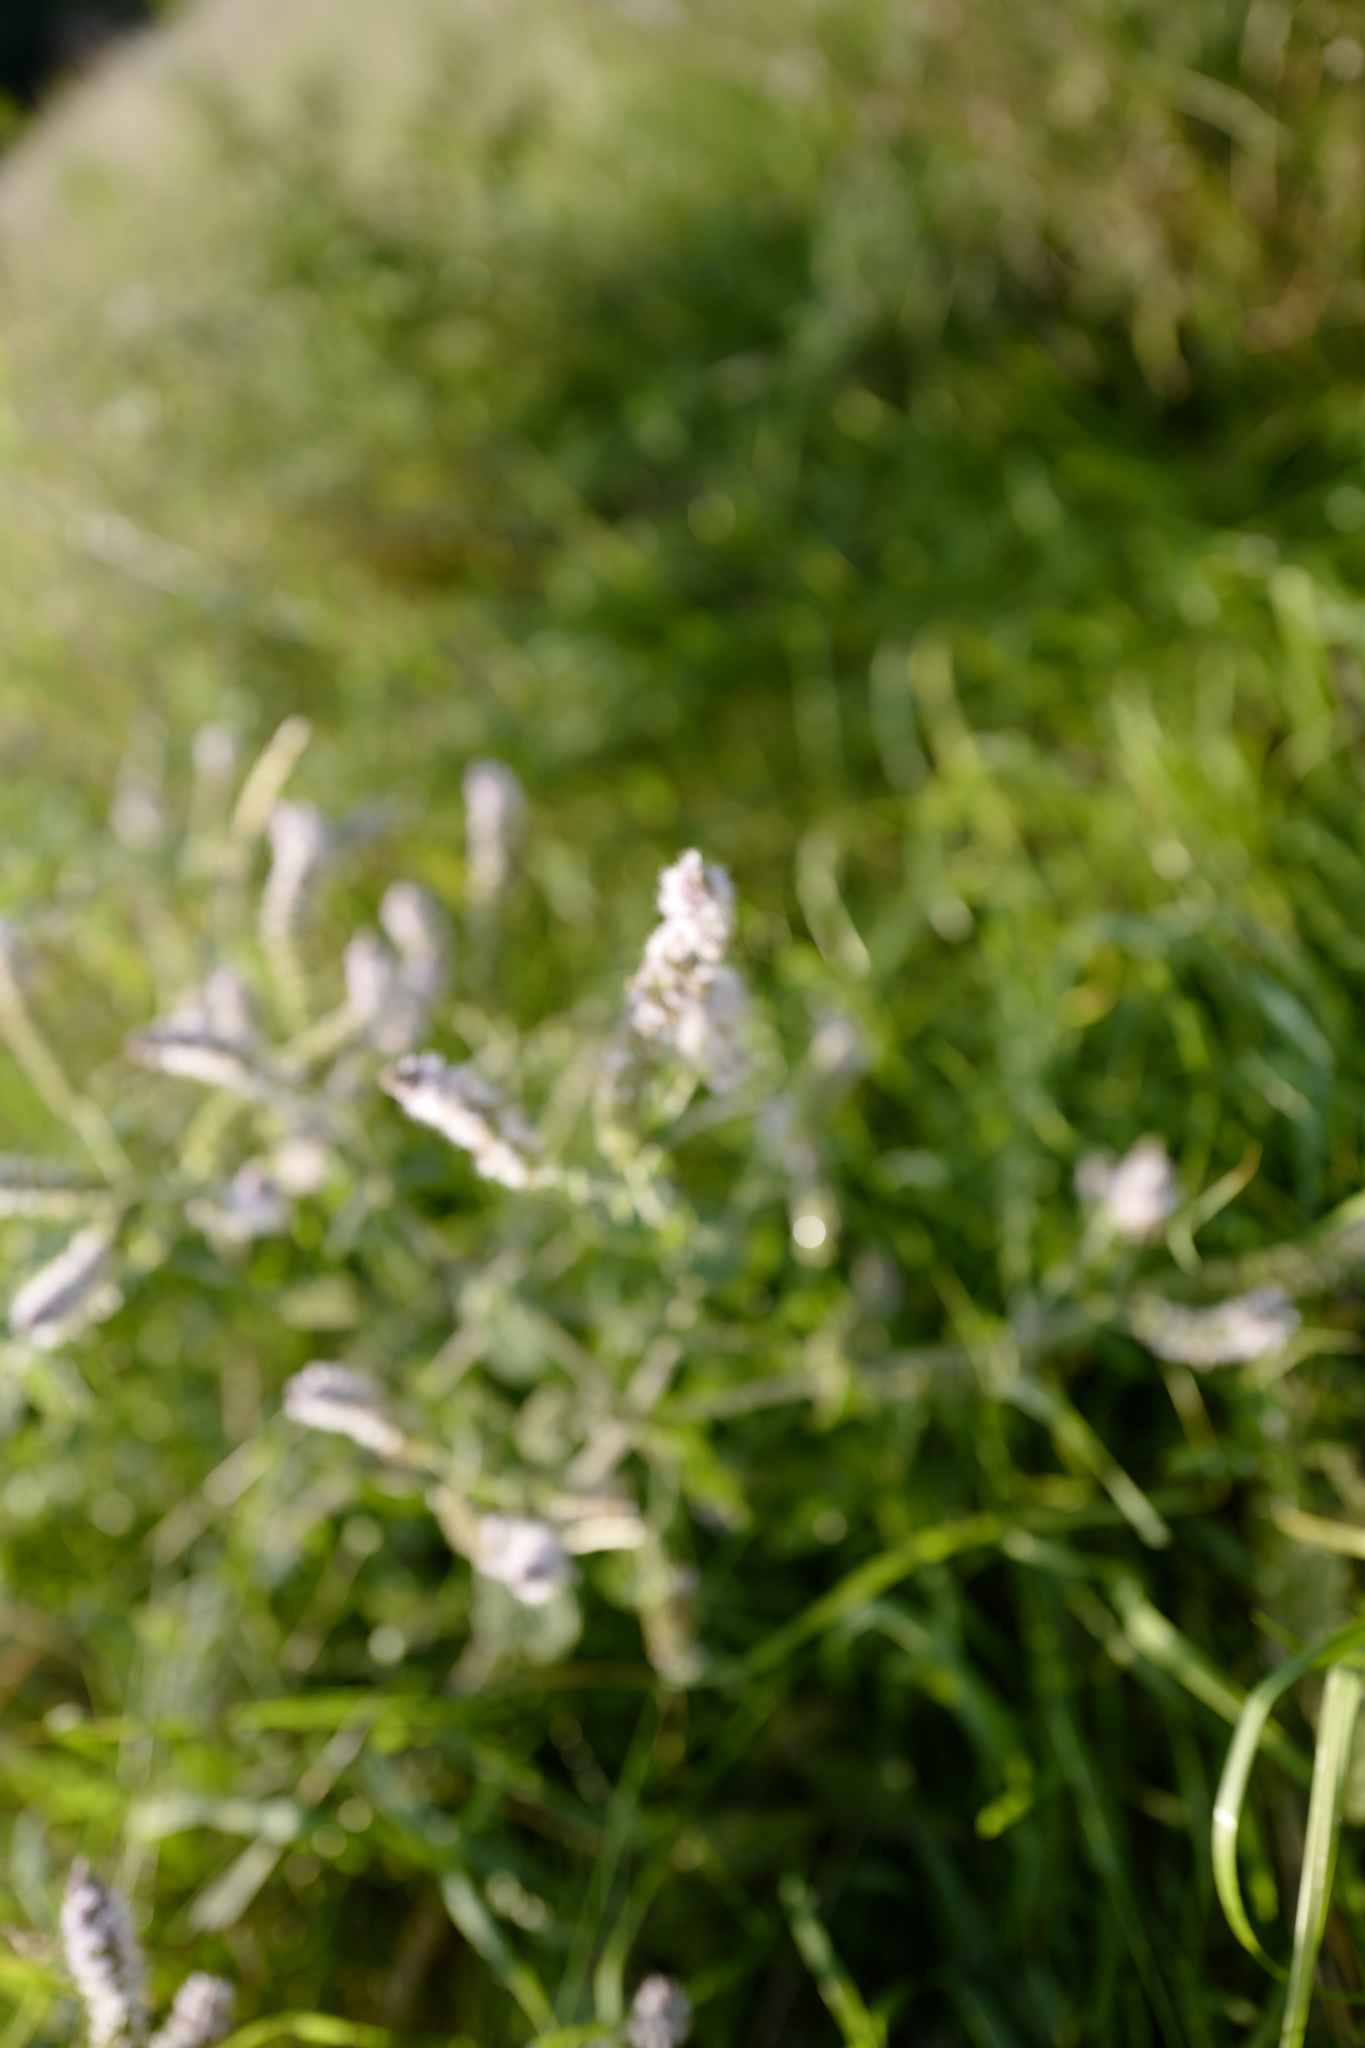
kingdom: Plantae
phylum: Tracheophyta
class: Magnoliopsida
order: Lamiales
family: Lamiaceae
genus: Mentha
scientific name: Mentha longifolia
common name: Horse mint
